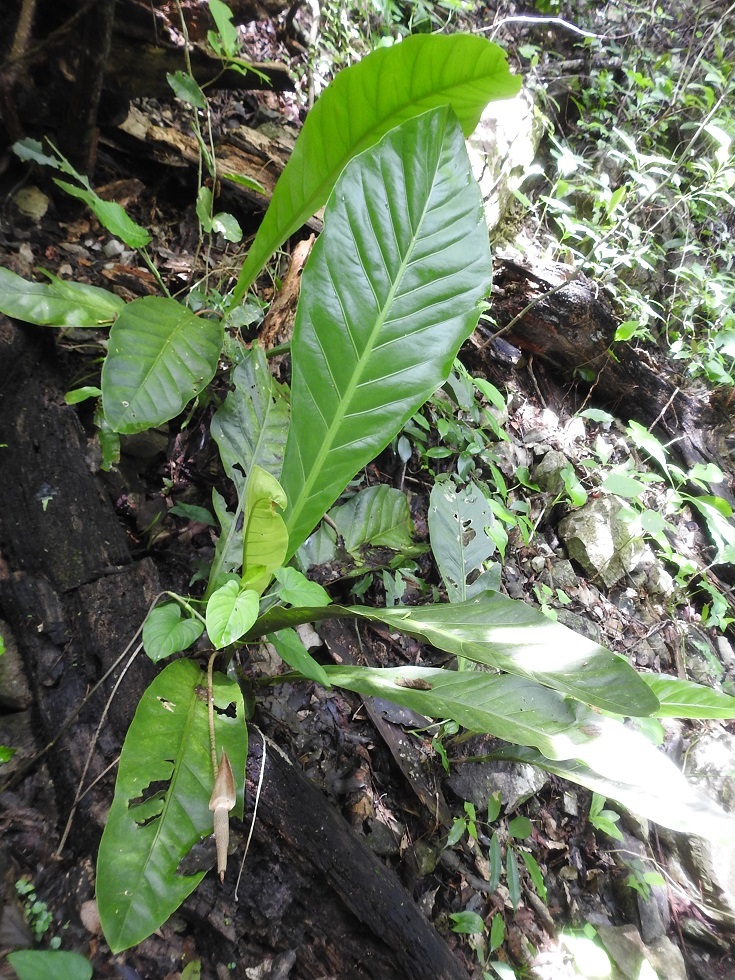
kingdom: Plantae
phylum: Tracheophyta
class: Liliopsida
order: Alismatales
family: Araceae
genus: Anthurium
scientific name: Anthurium schlechtendalii
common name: Laceleaf
